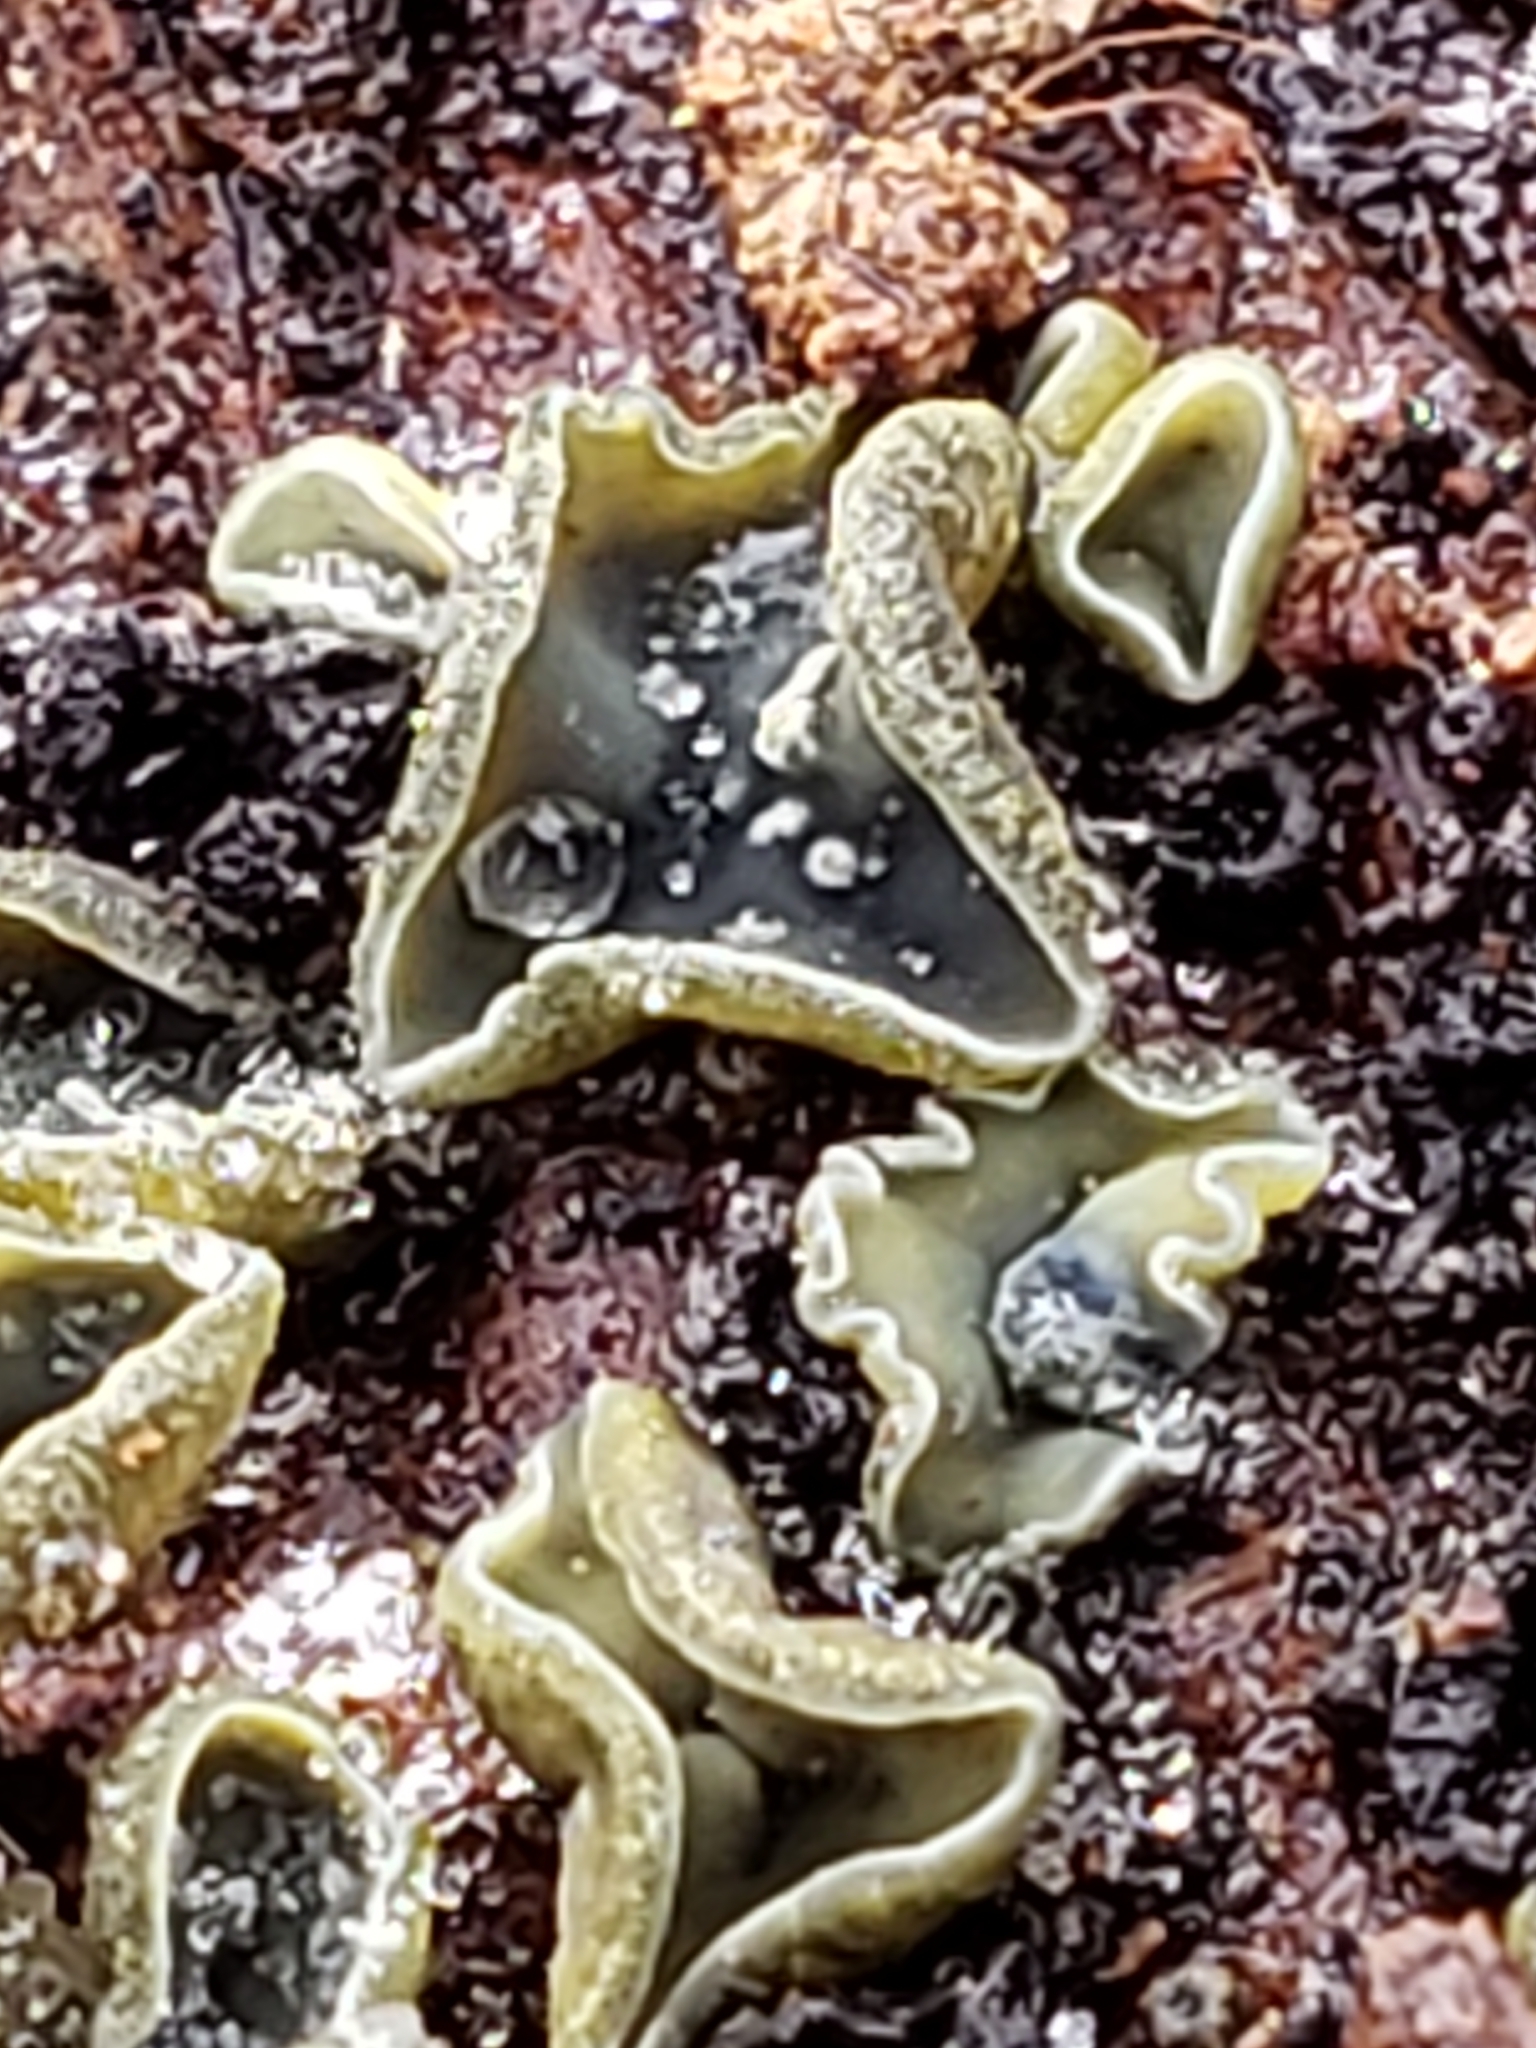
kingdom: Fungi
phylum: Ascomycota
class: Leotiomycetes
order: Helotiales
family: Chlorospleniaceae
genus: Chlorosplenium
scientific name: Chlorosplenium chlora
